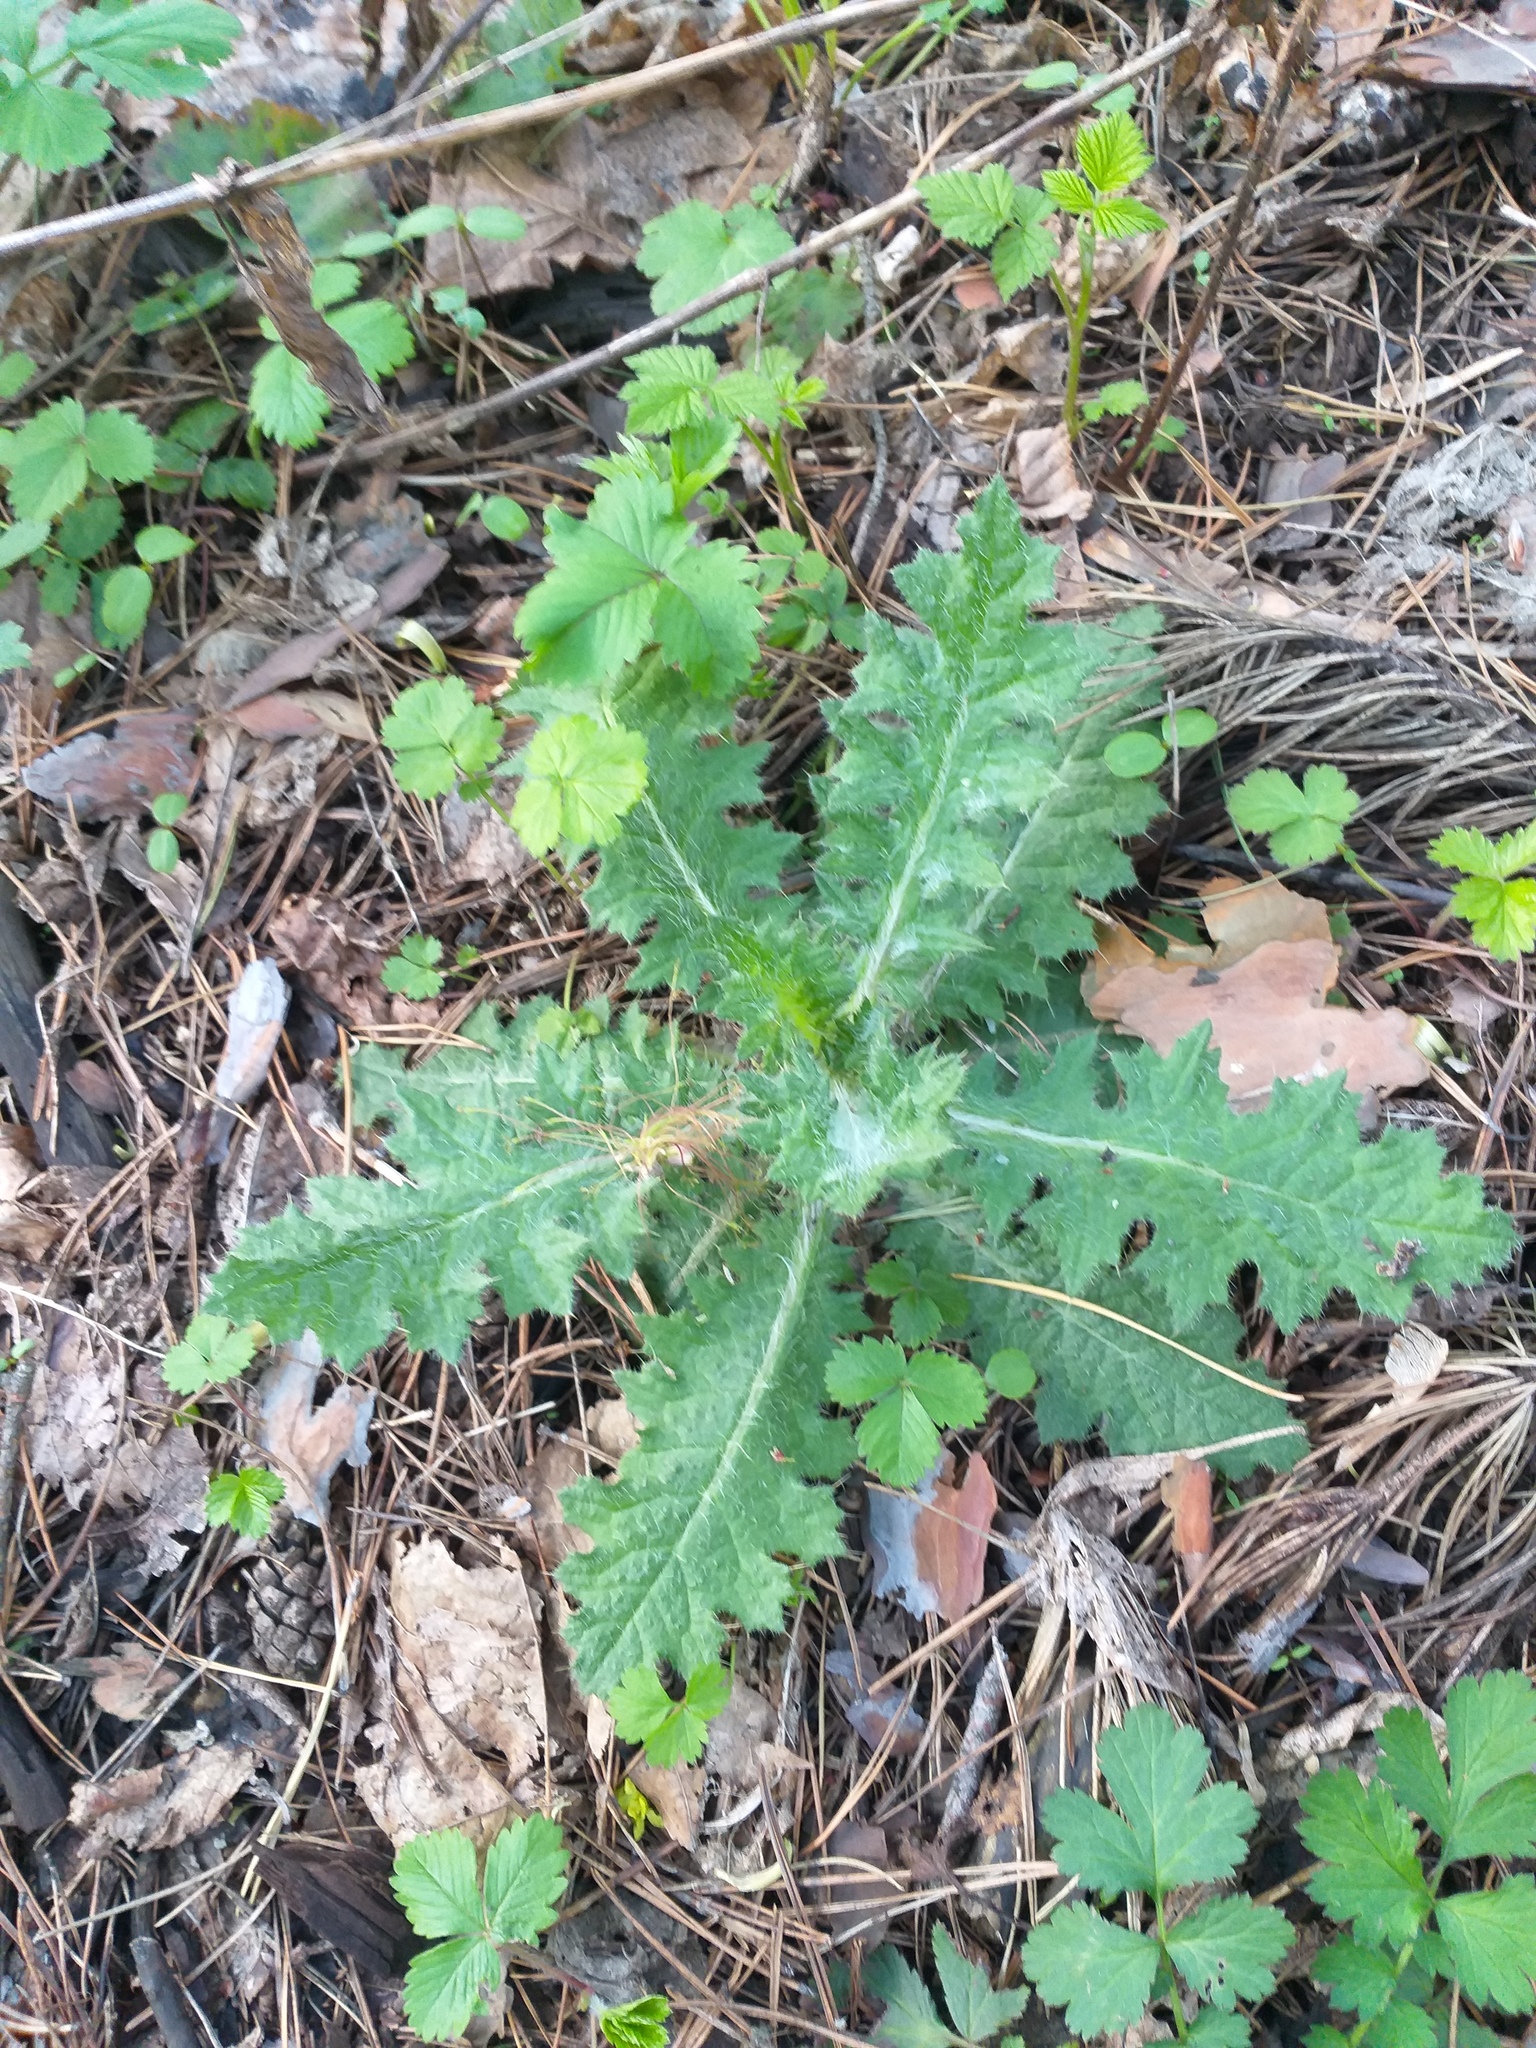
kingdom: Plantae
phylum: Tracheophyta
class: Magnoliopsida
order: Asterales
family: Asteraceae
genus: Cirsium
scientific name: Cirsium vulgare
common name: Bull thistle
